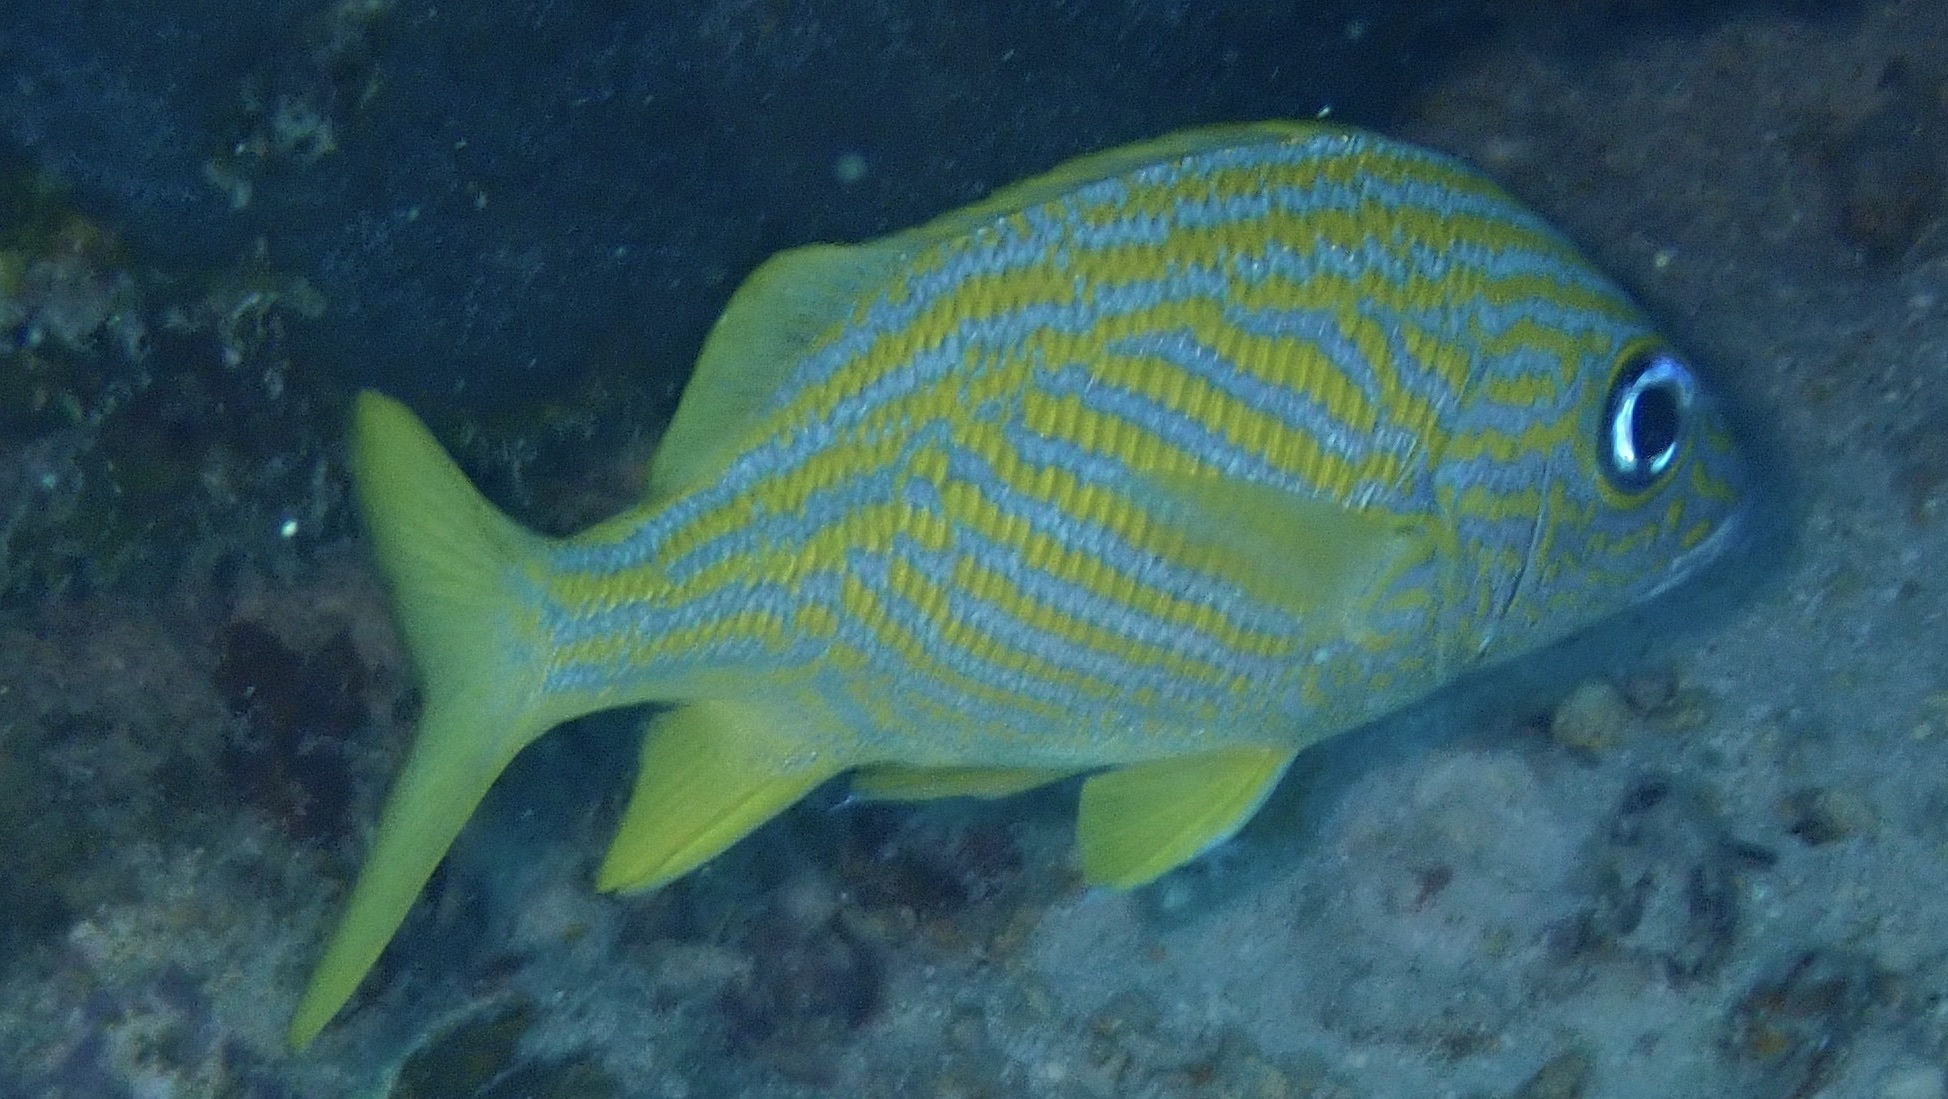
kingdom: Animalia
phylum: Chordata
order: Perciformes
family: Haemulidae
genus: Haemulon
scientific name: Haemulon flavolineatum
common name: French grunt
